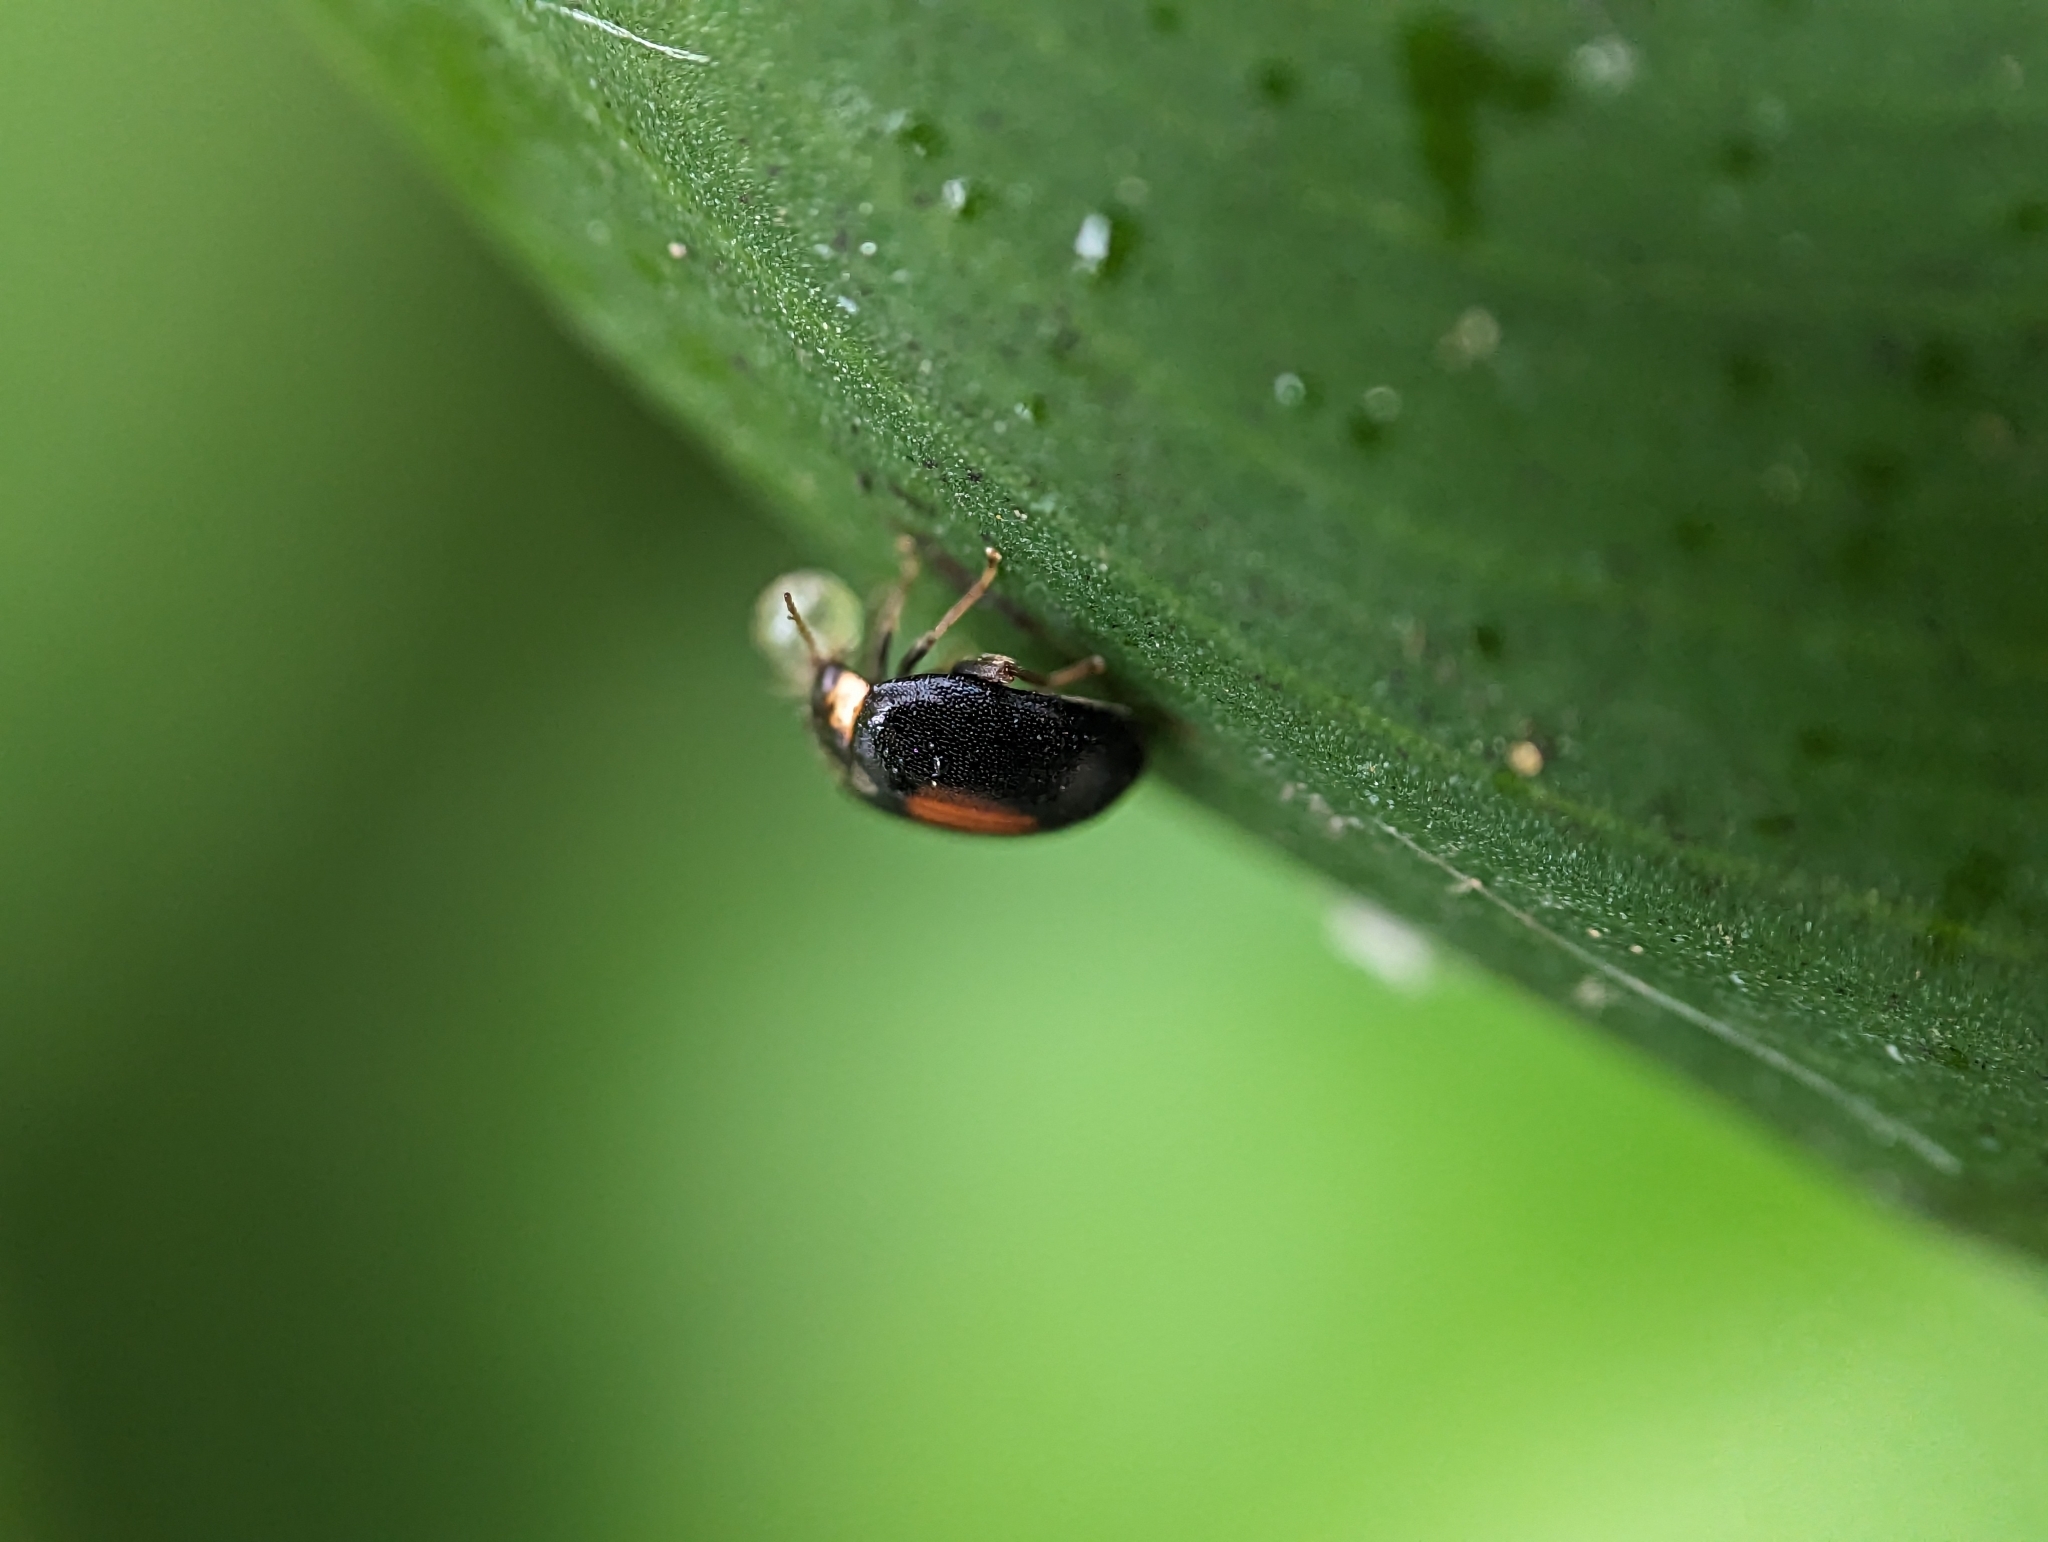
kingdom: Animalia
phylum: Arthropoda
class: Insecta
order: Coleoptera
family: Scirtidae
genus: Scirtes
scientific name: Scirtes orbiculatus
